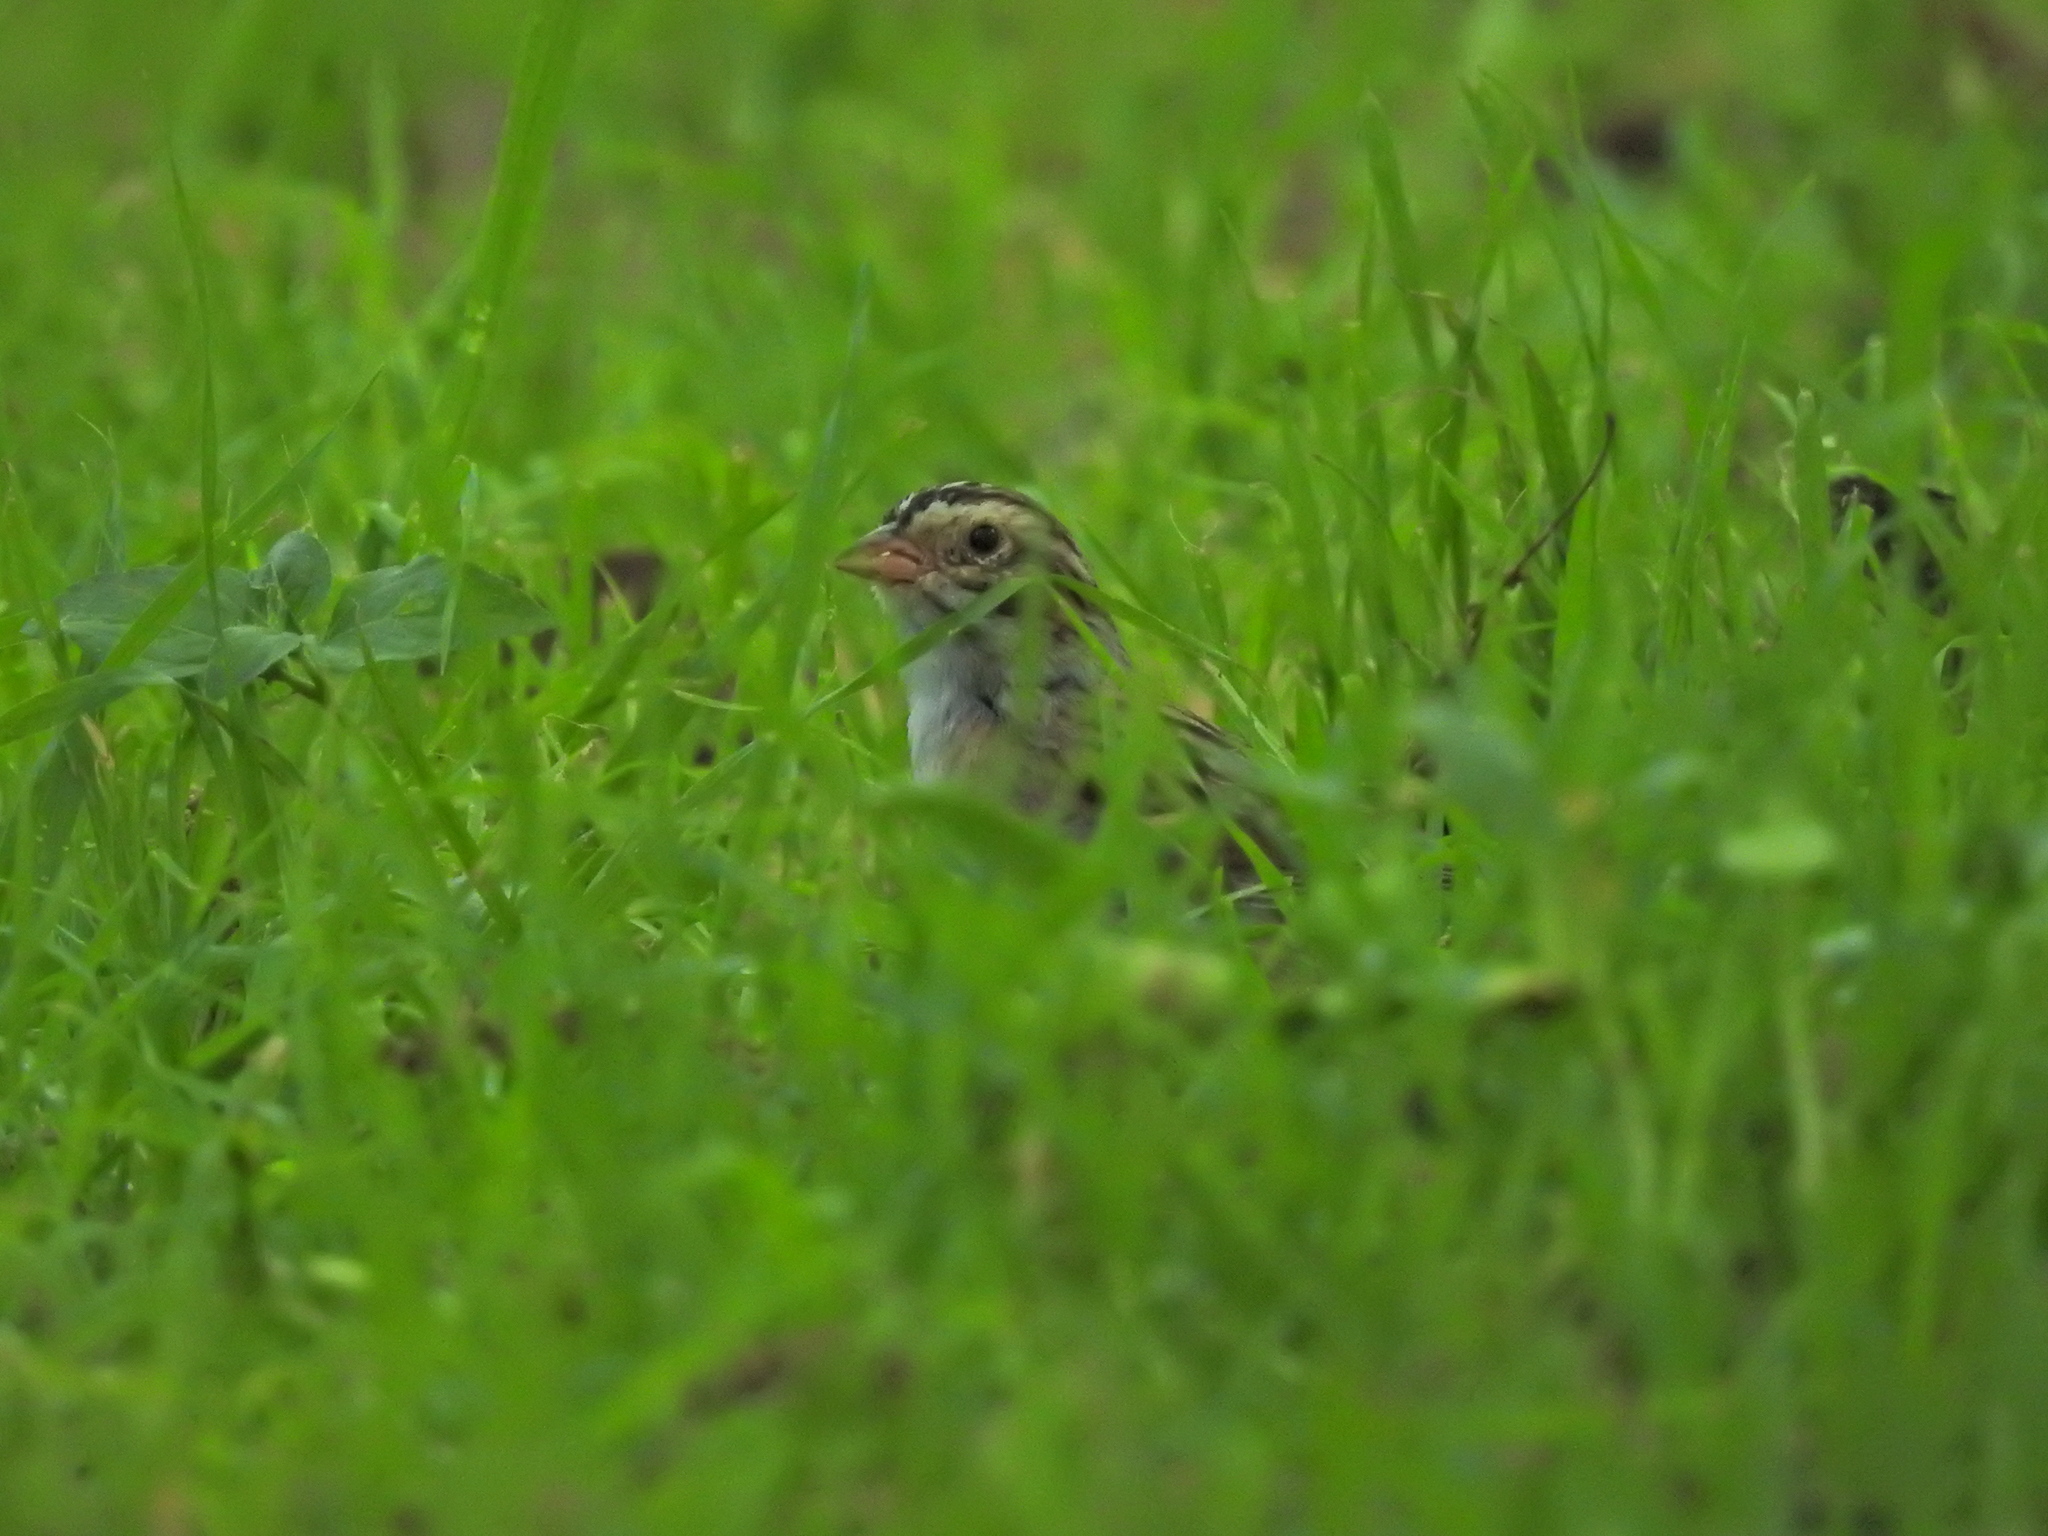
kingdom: Animalia
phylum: Chordata
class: Aves
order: Passeriformes
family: Passerellidae
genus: Spizella
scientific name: Spizella pallida
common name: Clay-colored sparrow
